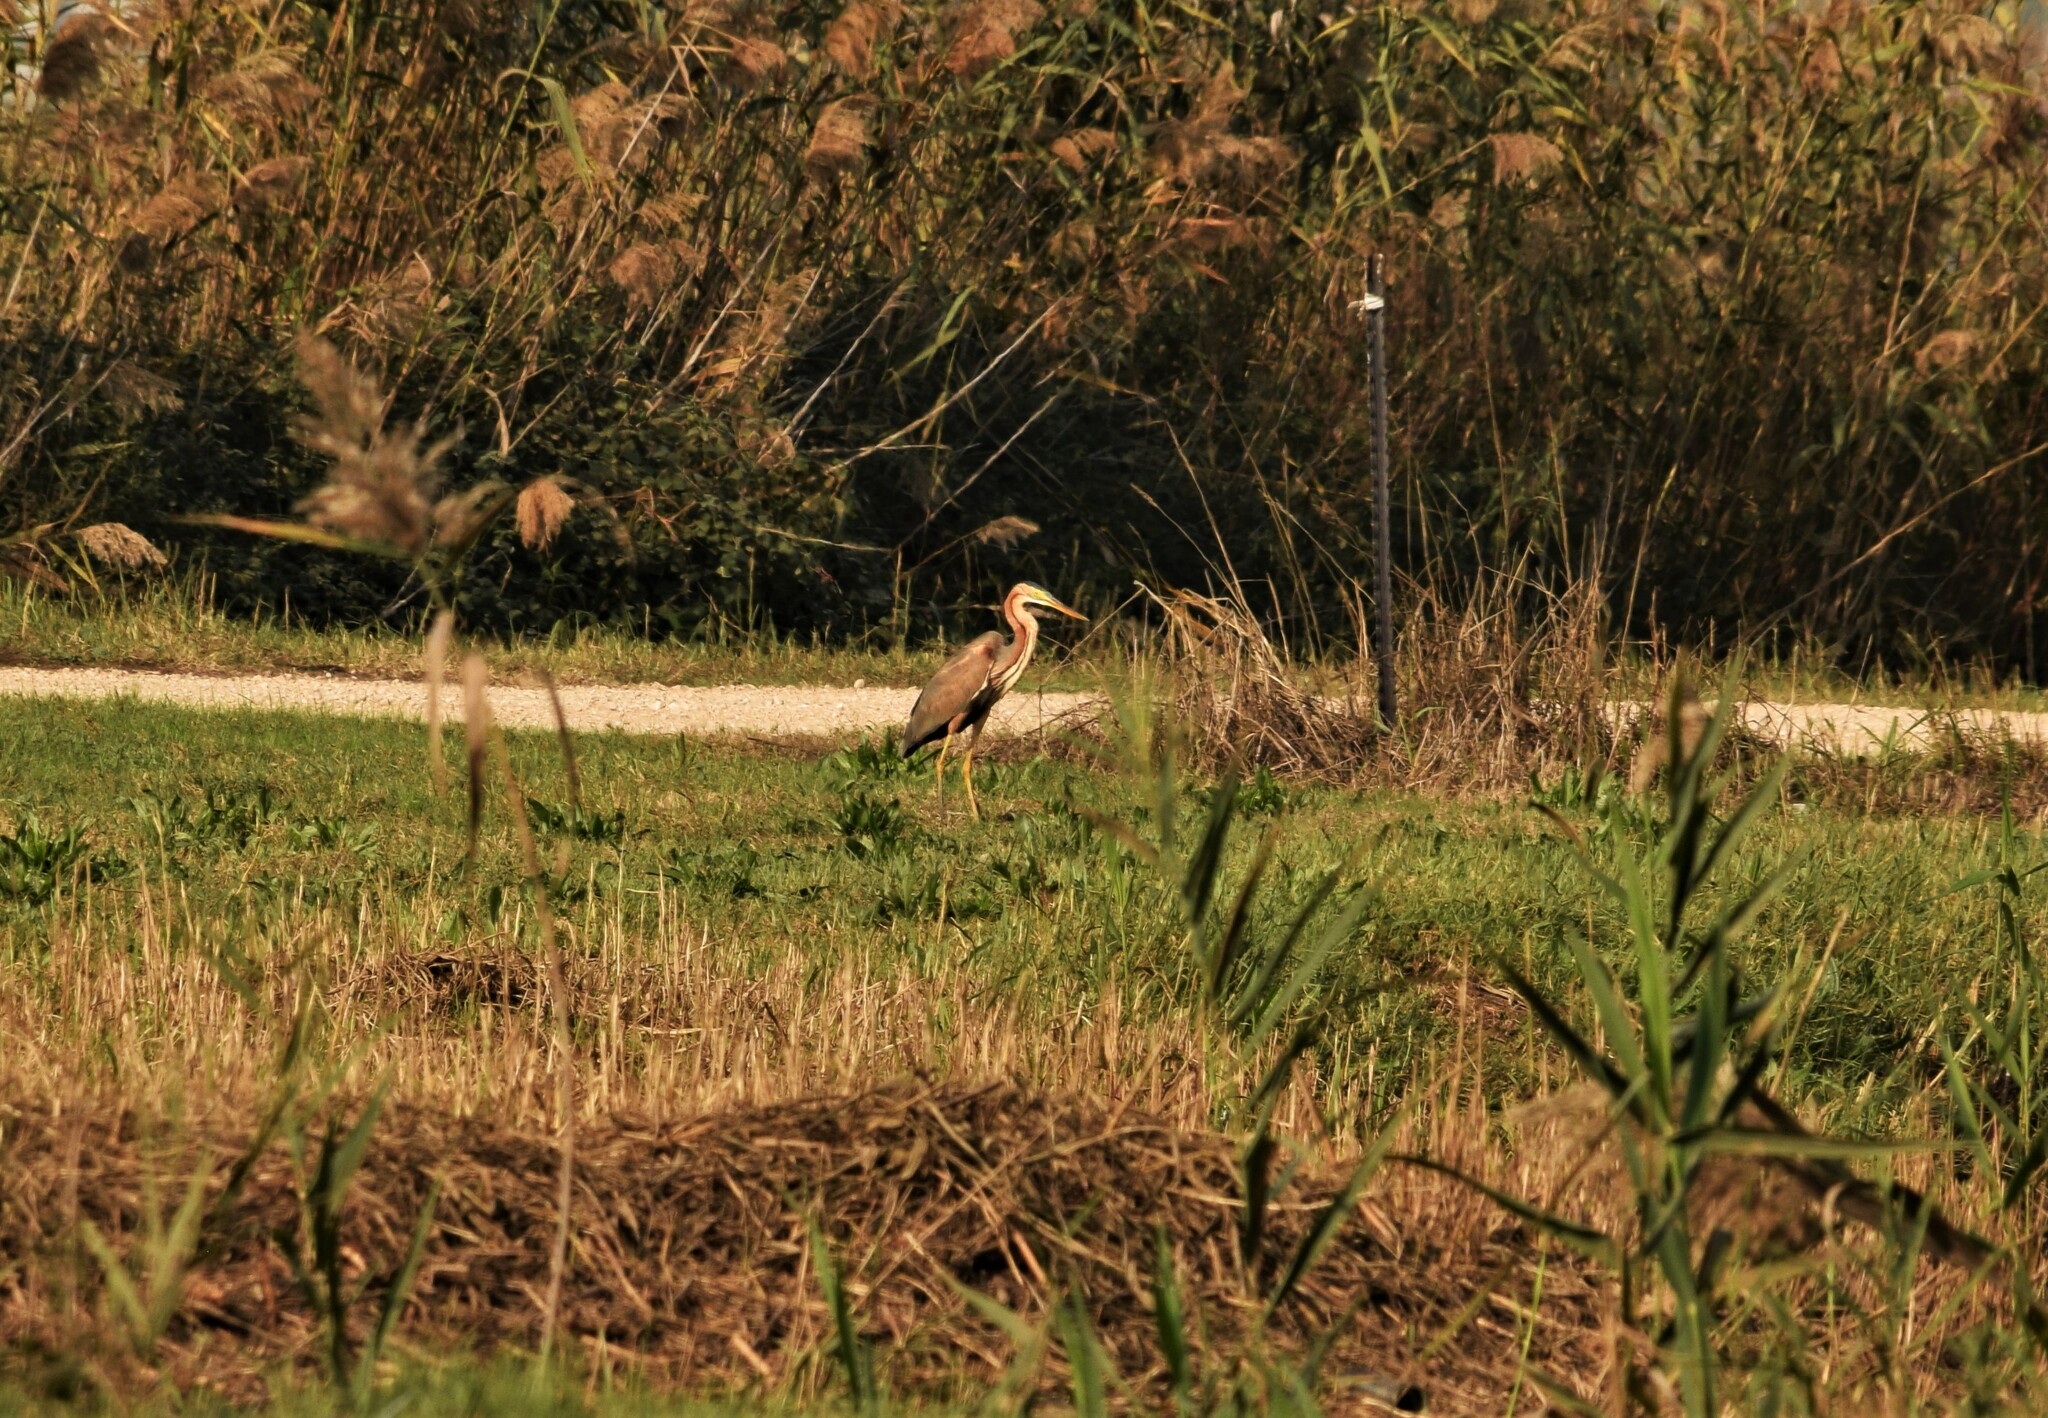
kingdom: Animalia
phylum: Chordata
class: Aves
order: Pelecaniformes
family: Ardeidae
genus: Ardea
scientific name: Ardea purpurea
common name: Purple heron
